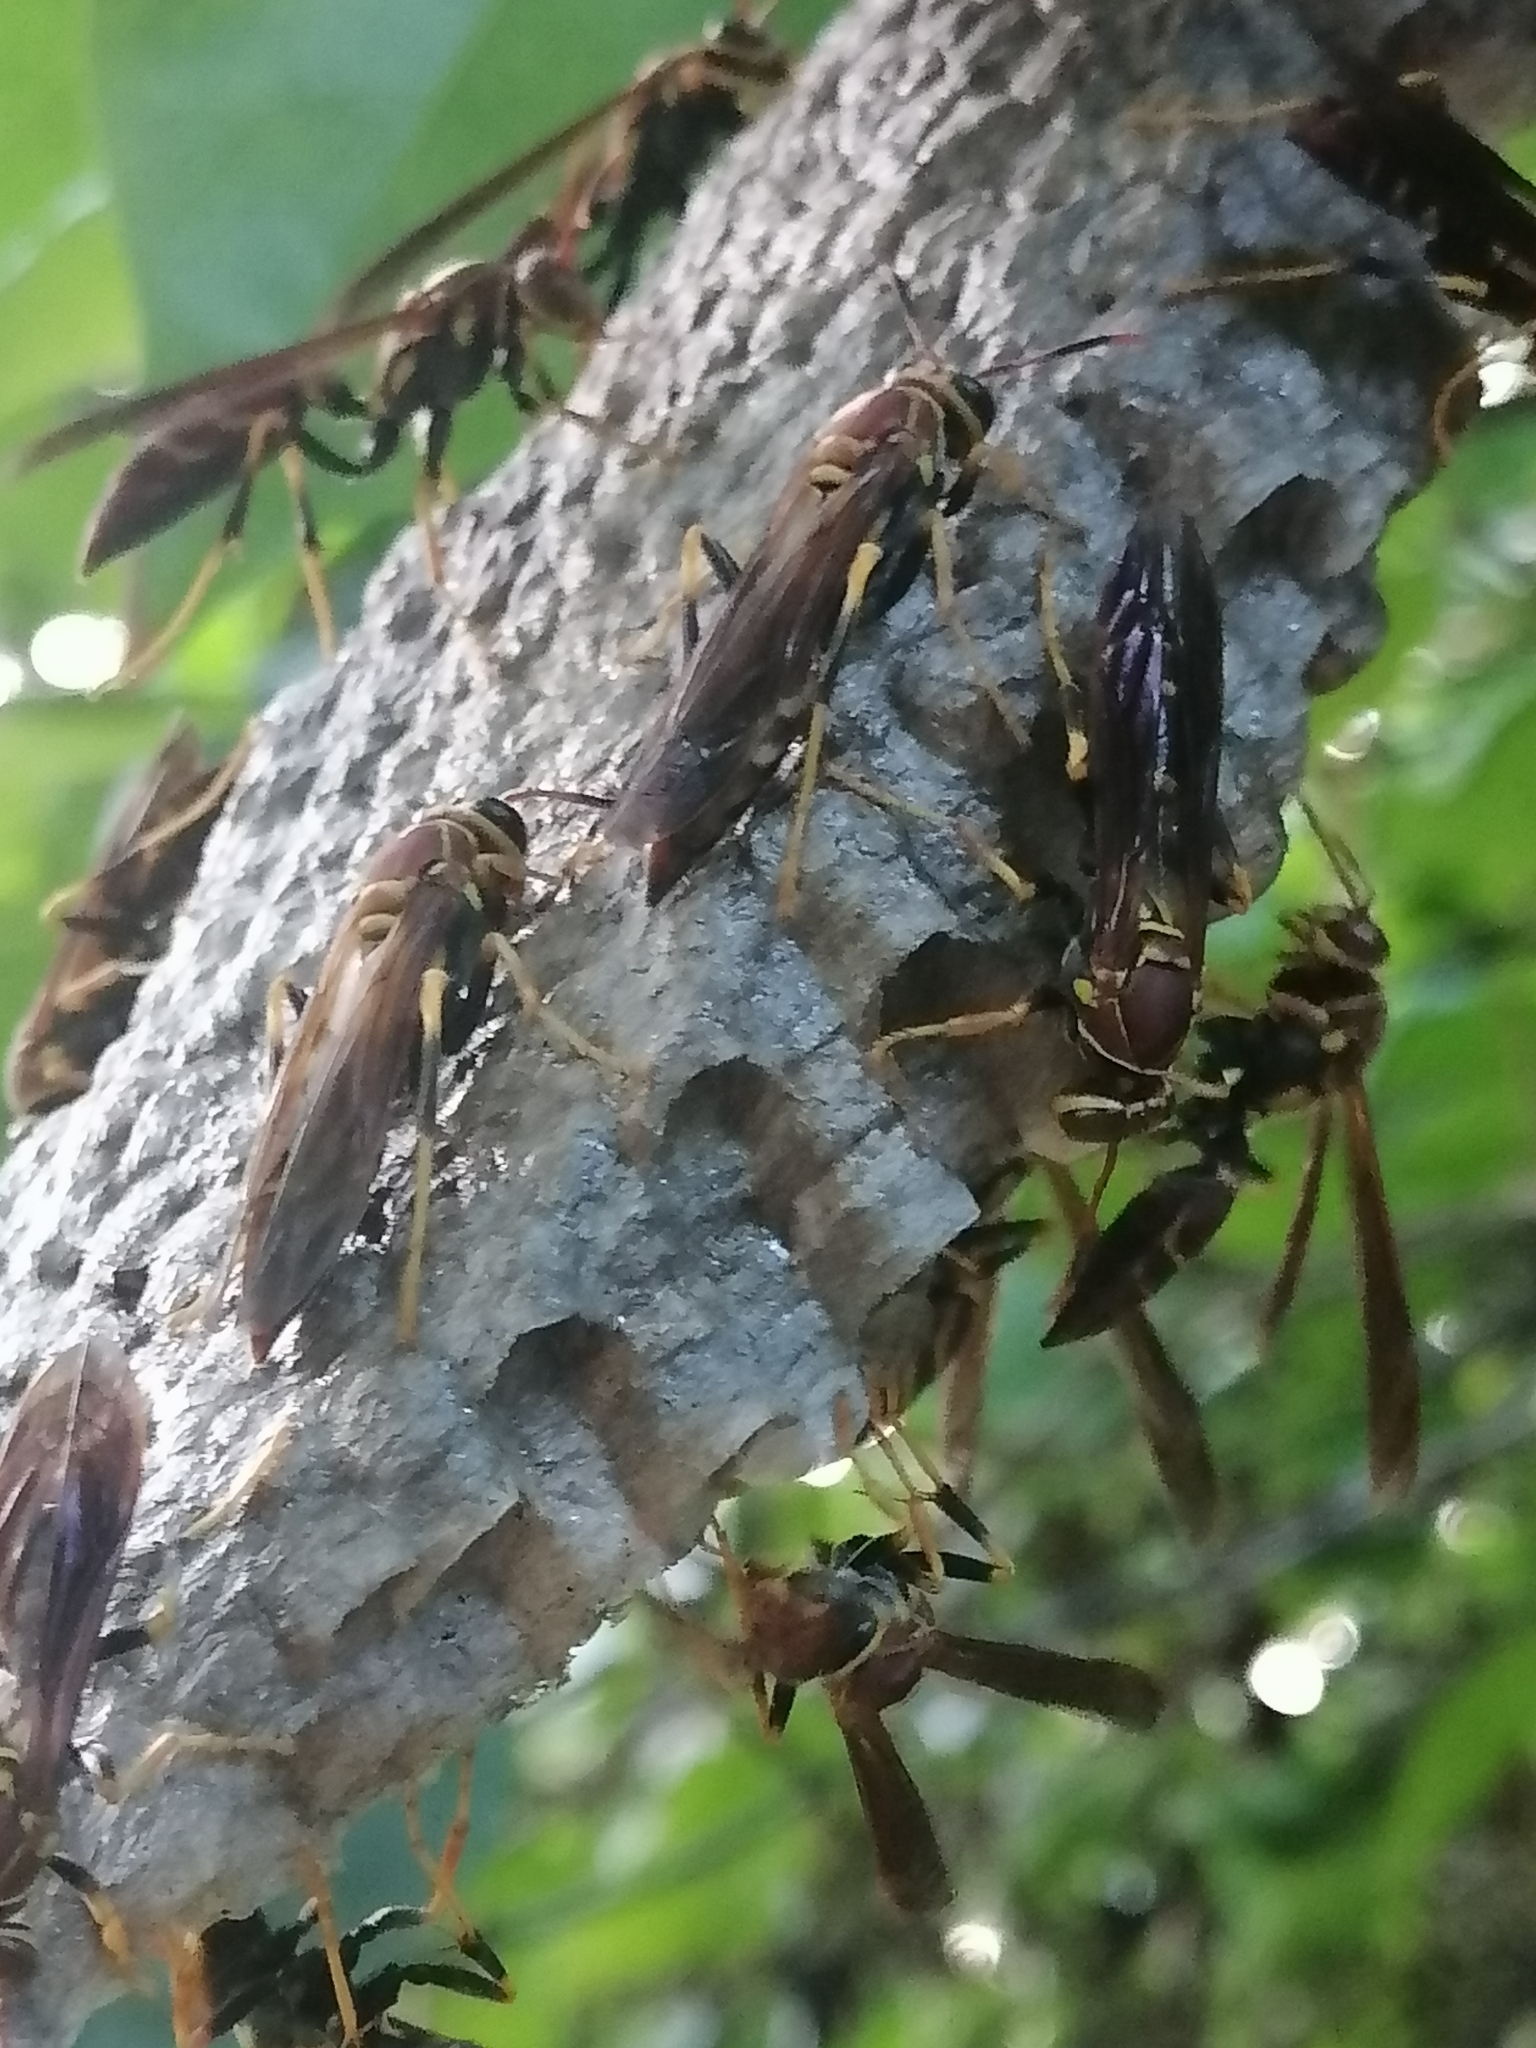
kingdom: Animalia
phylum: Arthropoda
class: Insecta
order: Hymenoptera
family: Eumenidae
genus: Polistes
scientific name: Polistes instabilis
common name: Unstable paper wasp
